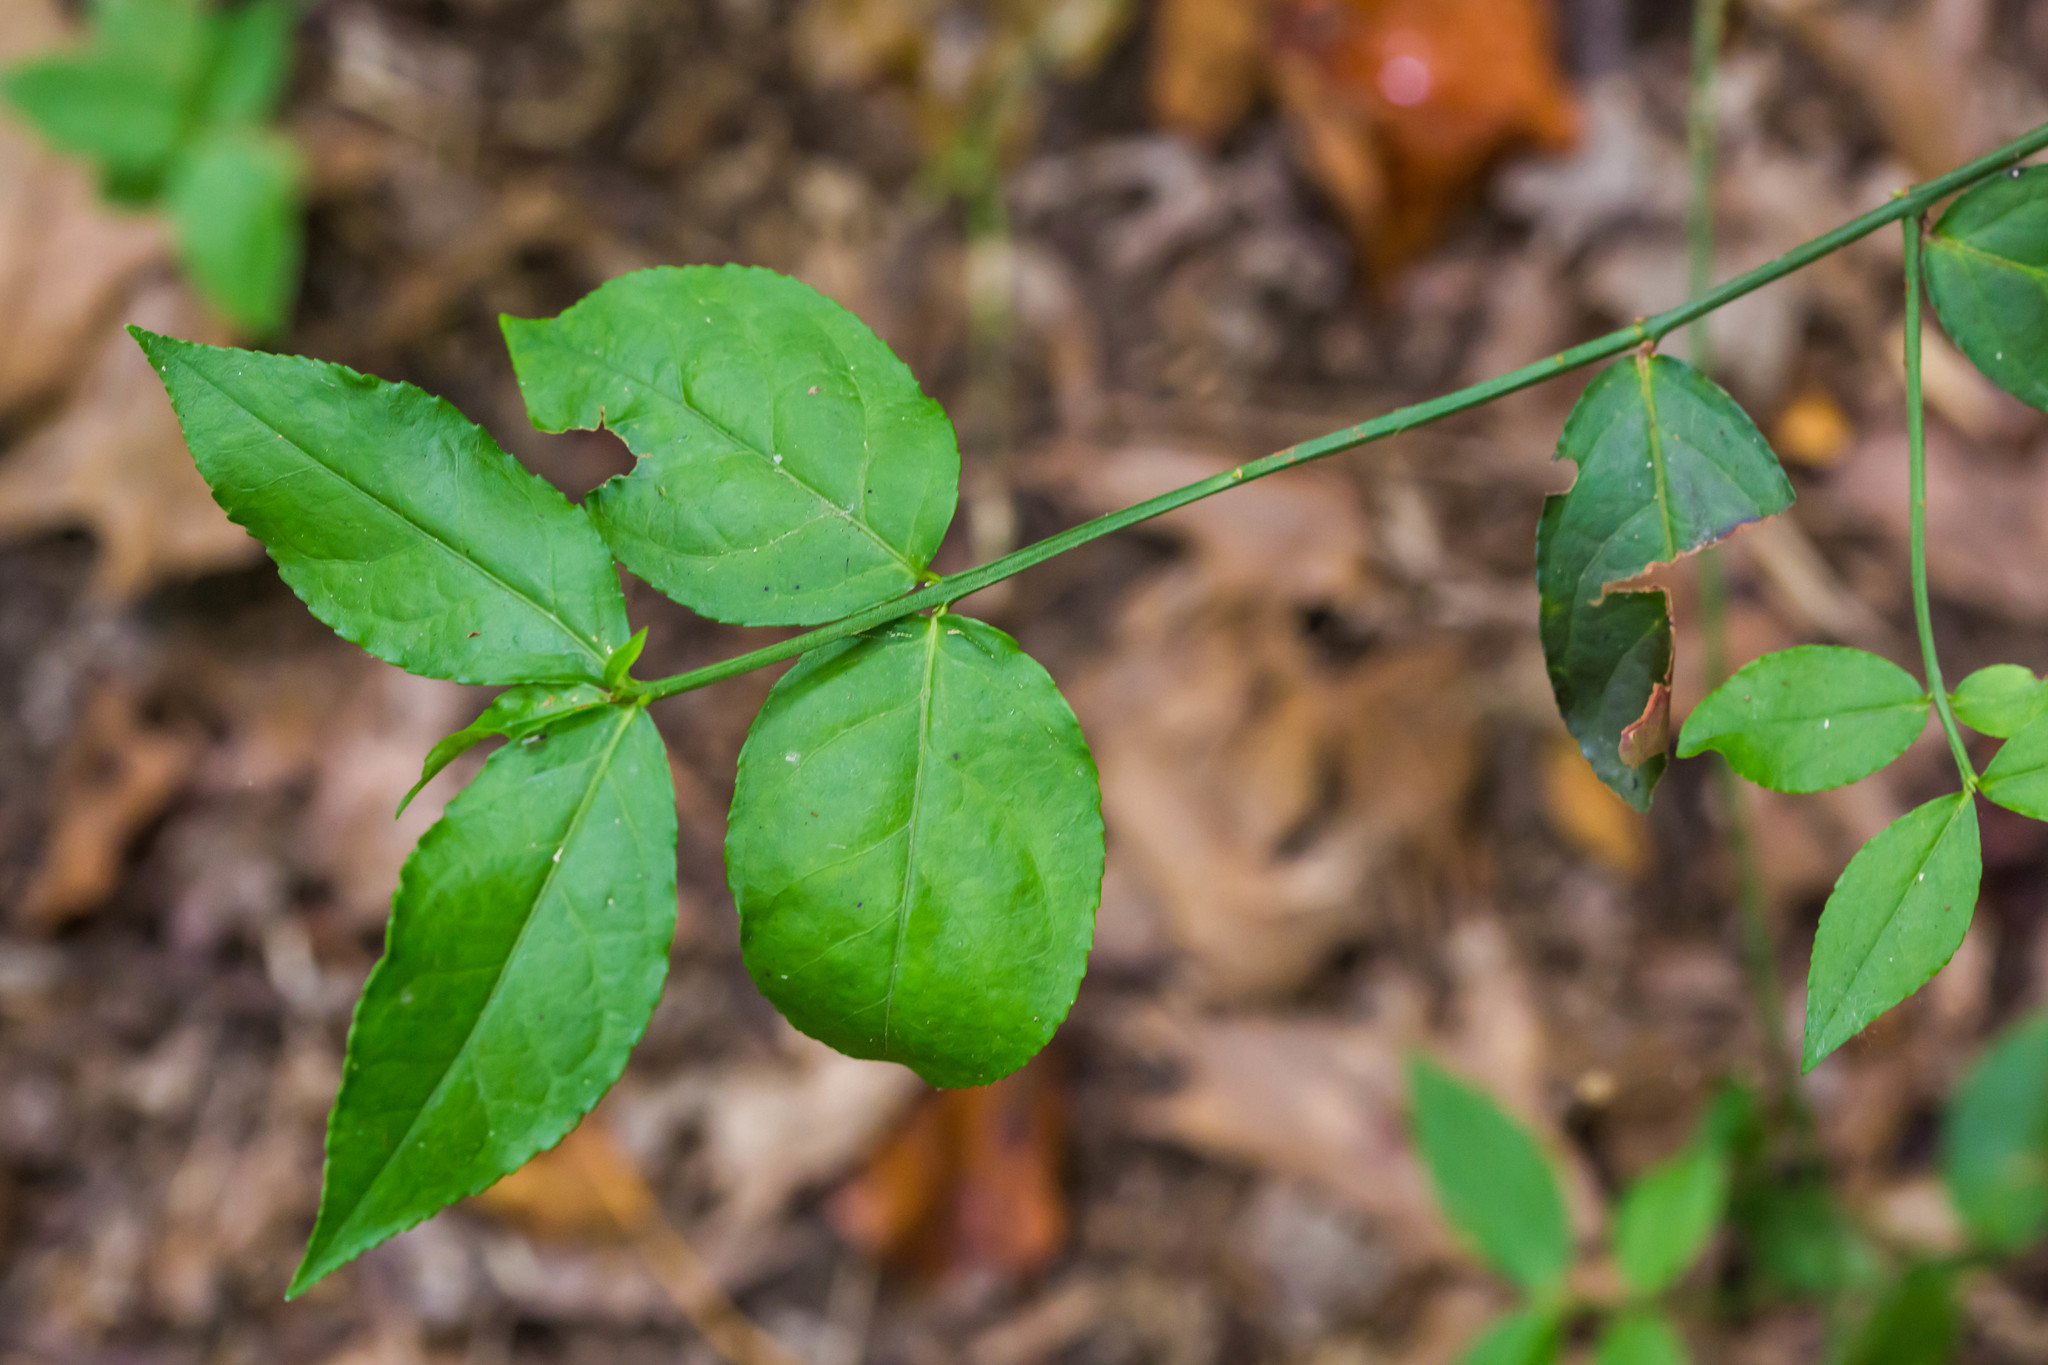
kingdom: Plantae
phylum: Tracheophyta
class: Magnoliopsida
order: Celastrales
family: Celastraceae
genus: Euonymus
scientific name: Euonymus americanus
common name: Bursting-heart
